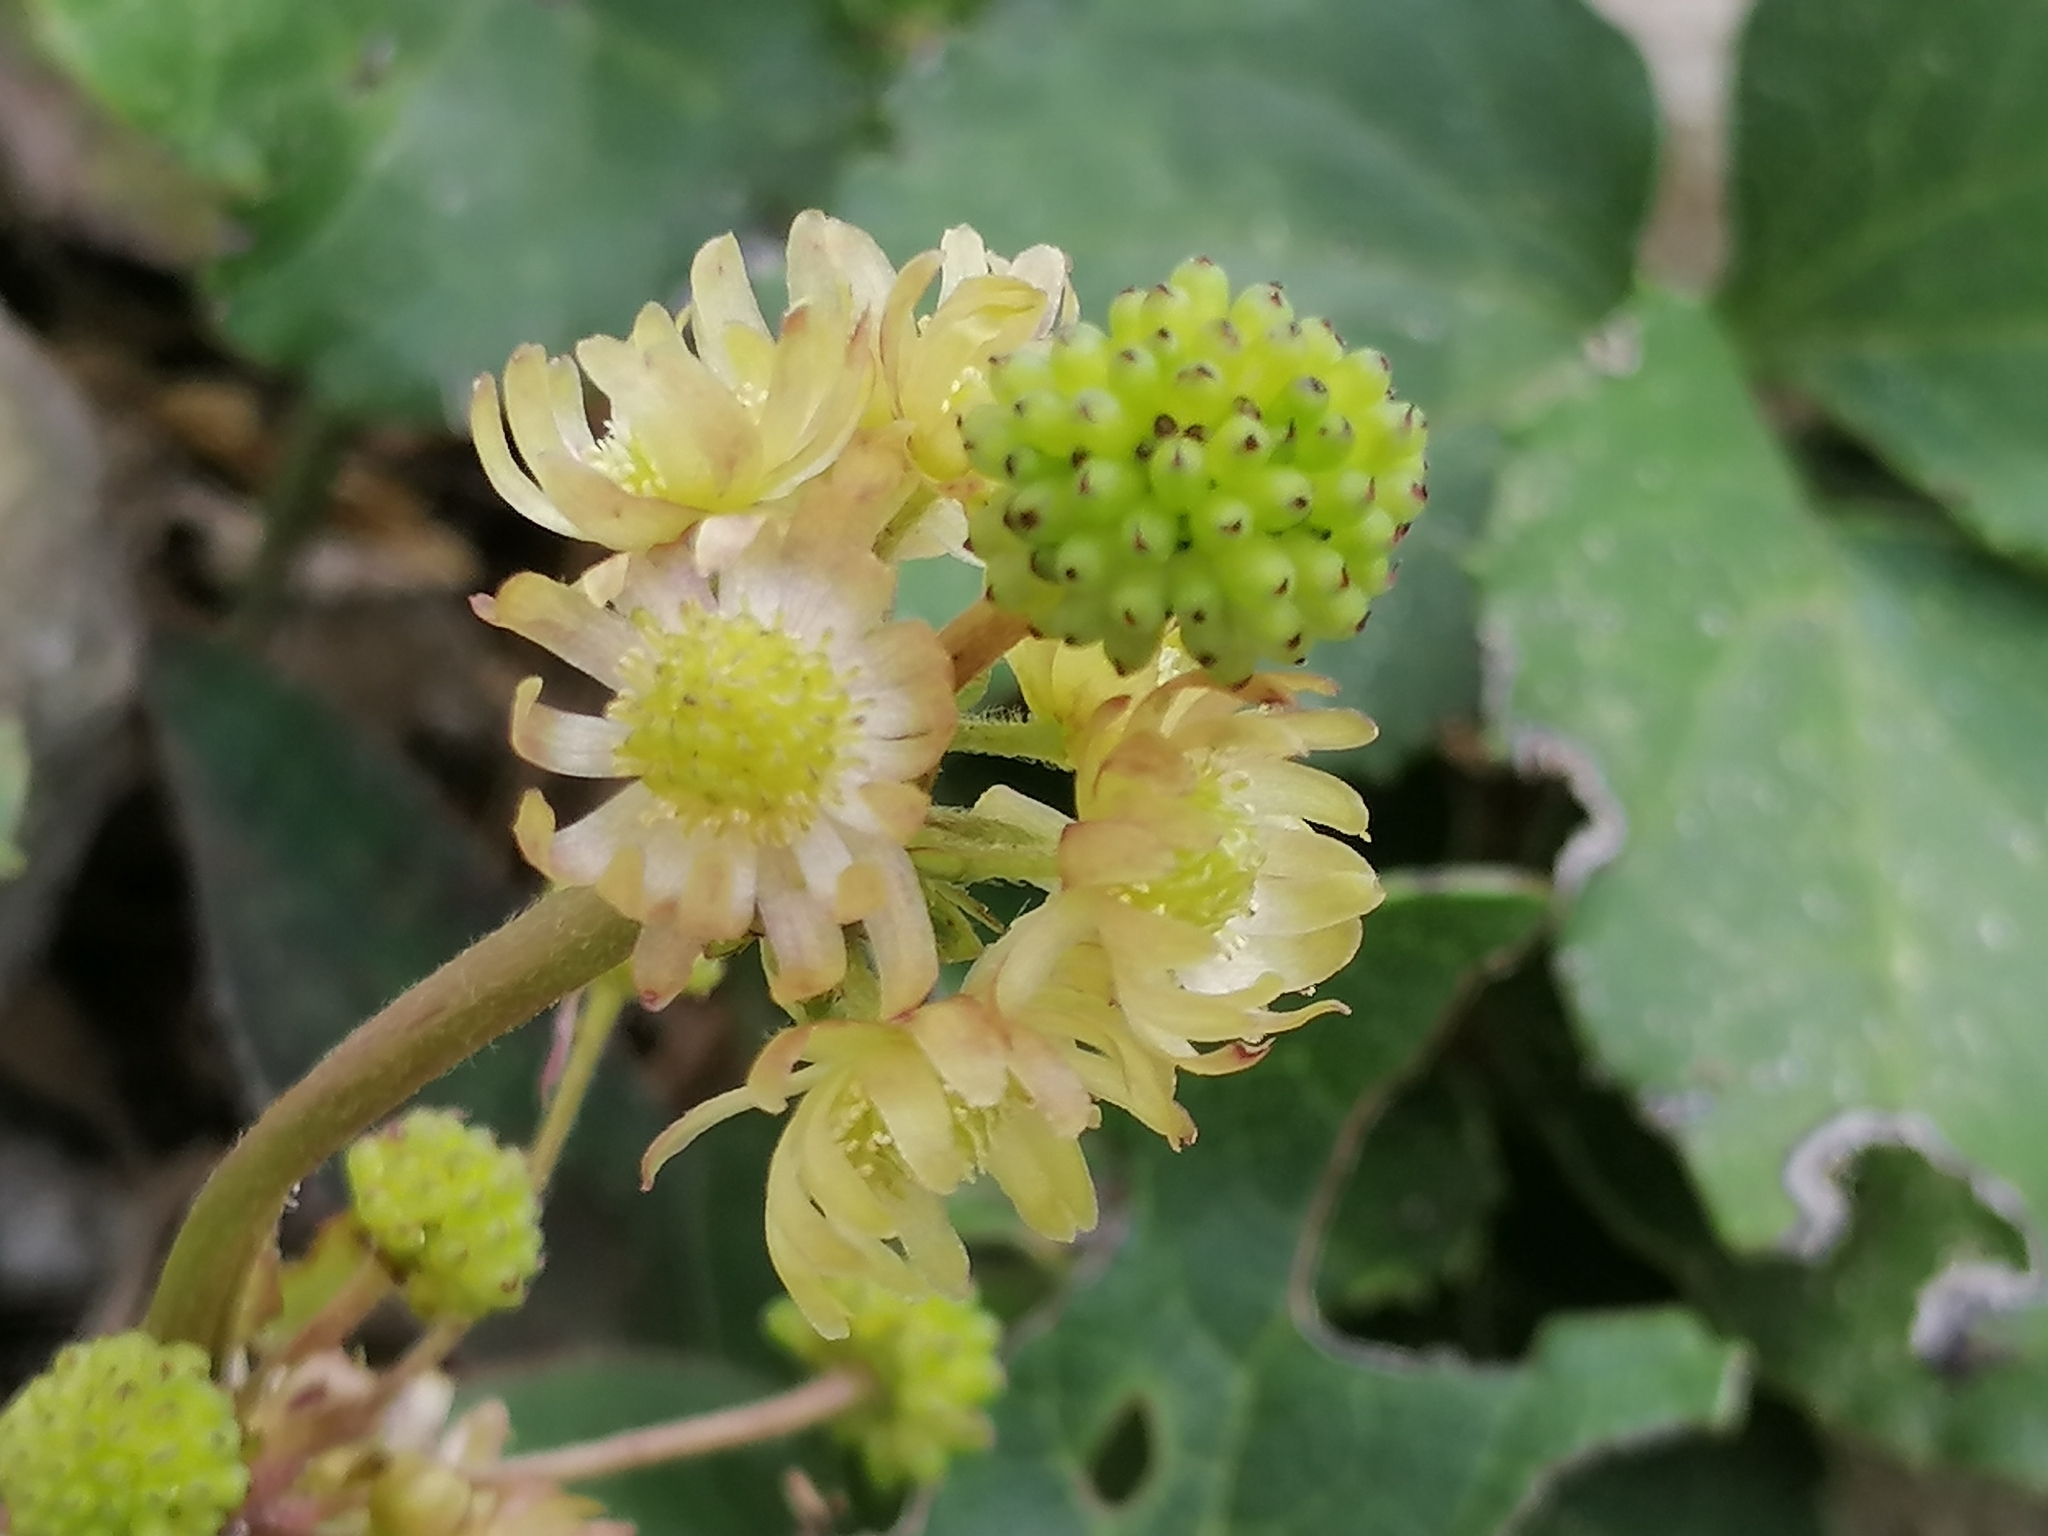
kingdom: Plantae
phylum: Tracheophyta
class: Magnoliopsida
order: Ranunculales
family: Ranunculaceae
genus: Knowltonia
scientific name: Knowltonia vesicatoria
